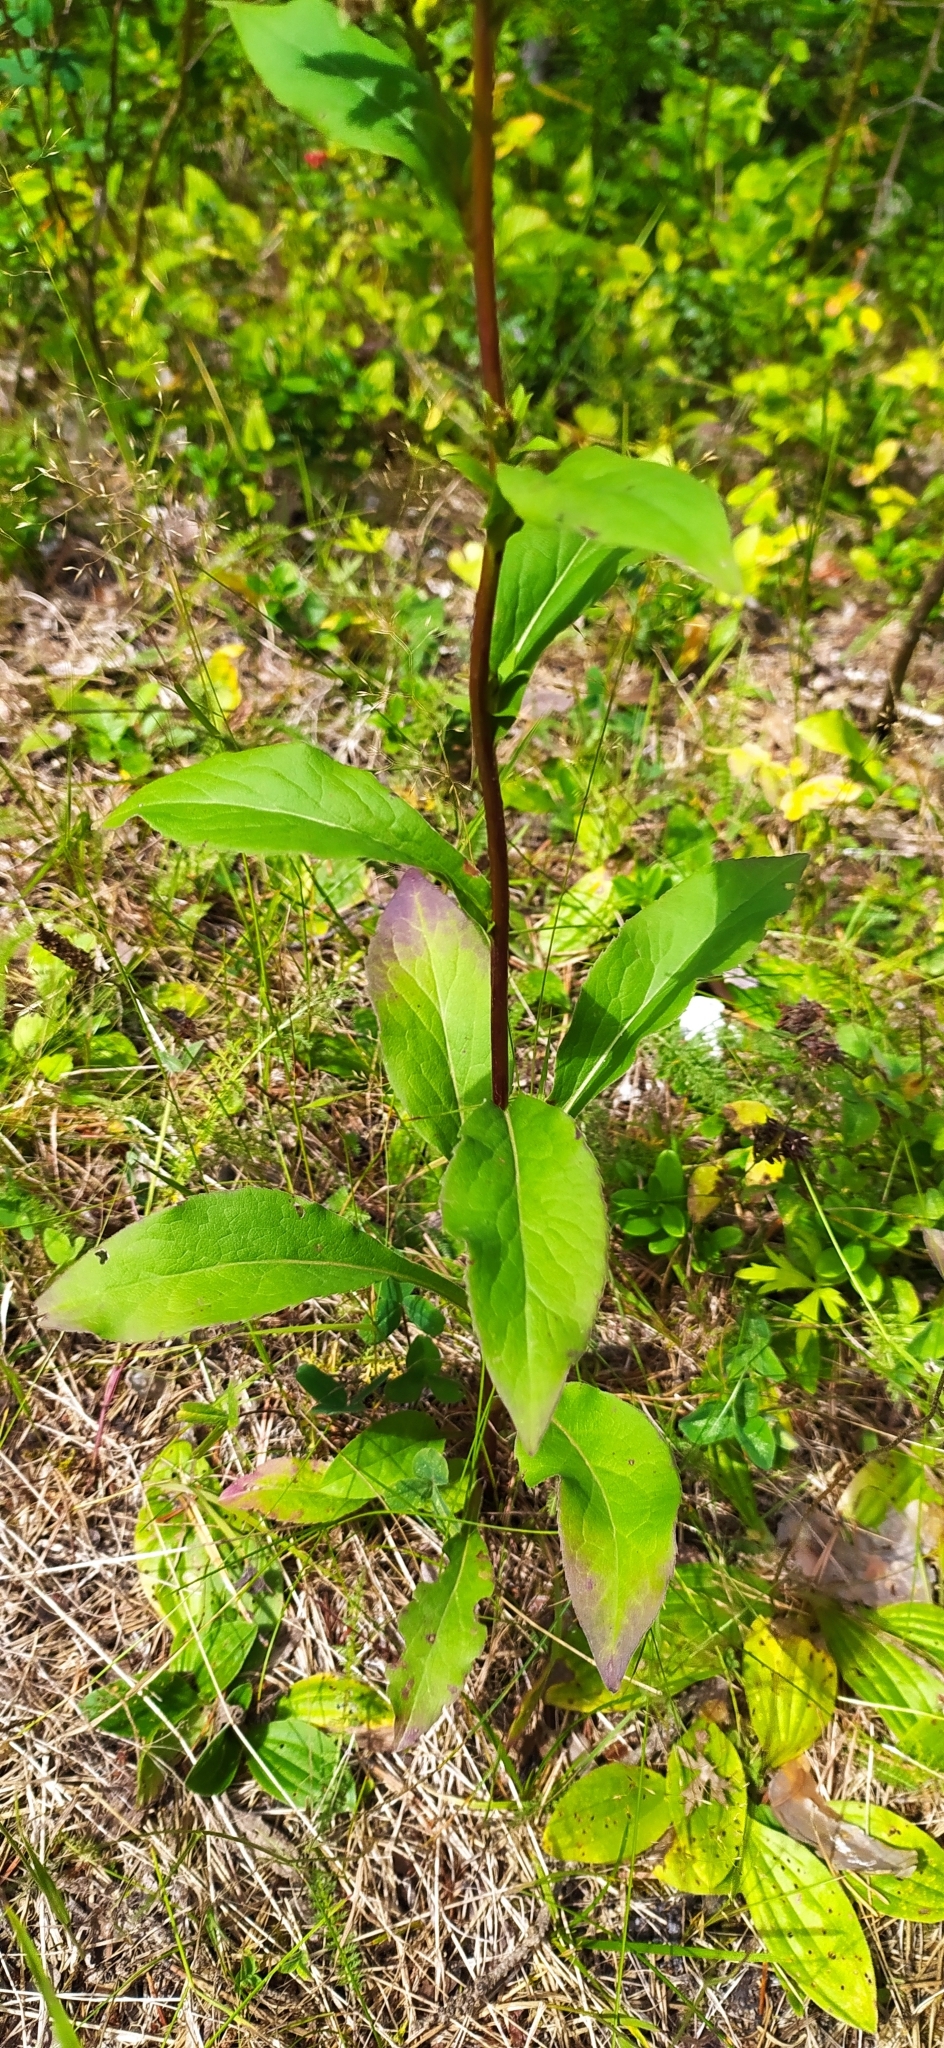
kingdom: Plantae
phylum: Tracheophyta
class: Magnoliopsida
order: Asterales
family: Asteraceae
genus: Solidago
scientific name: Solidago virgaurea
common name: Goldenrod
